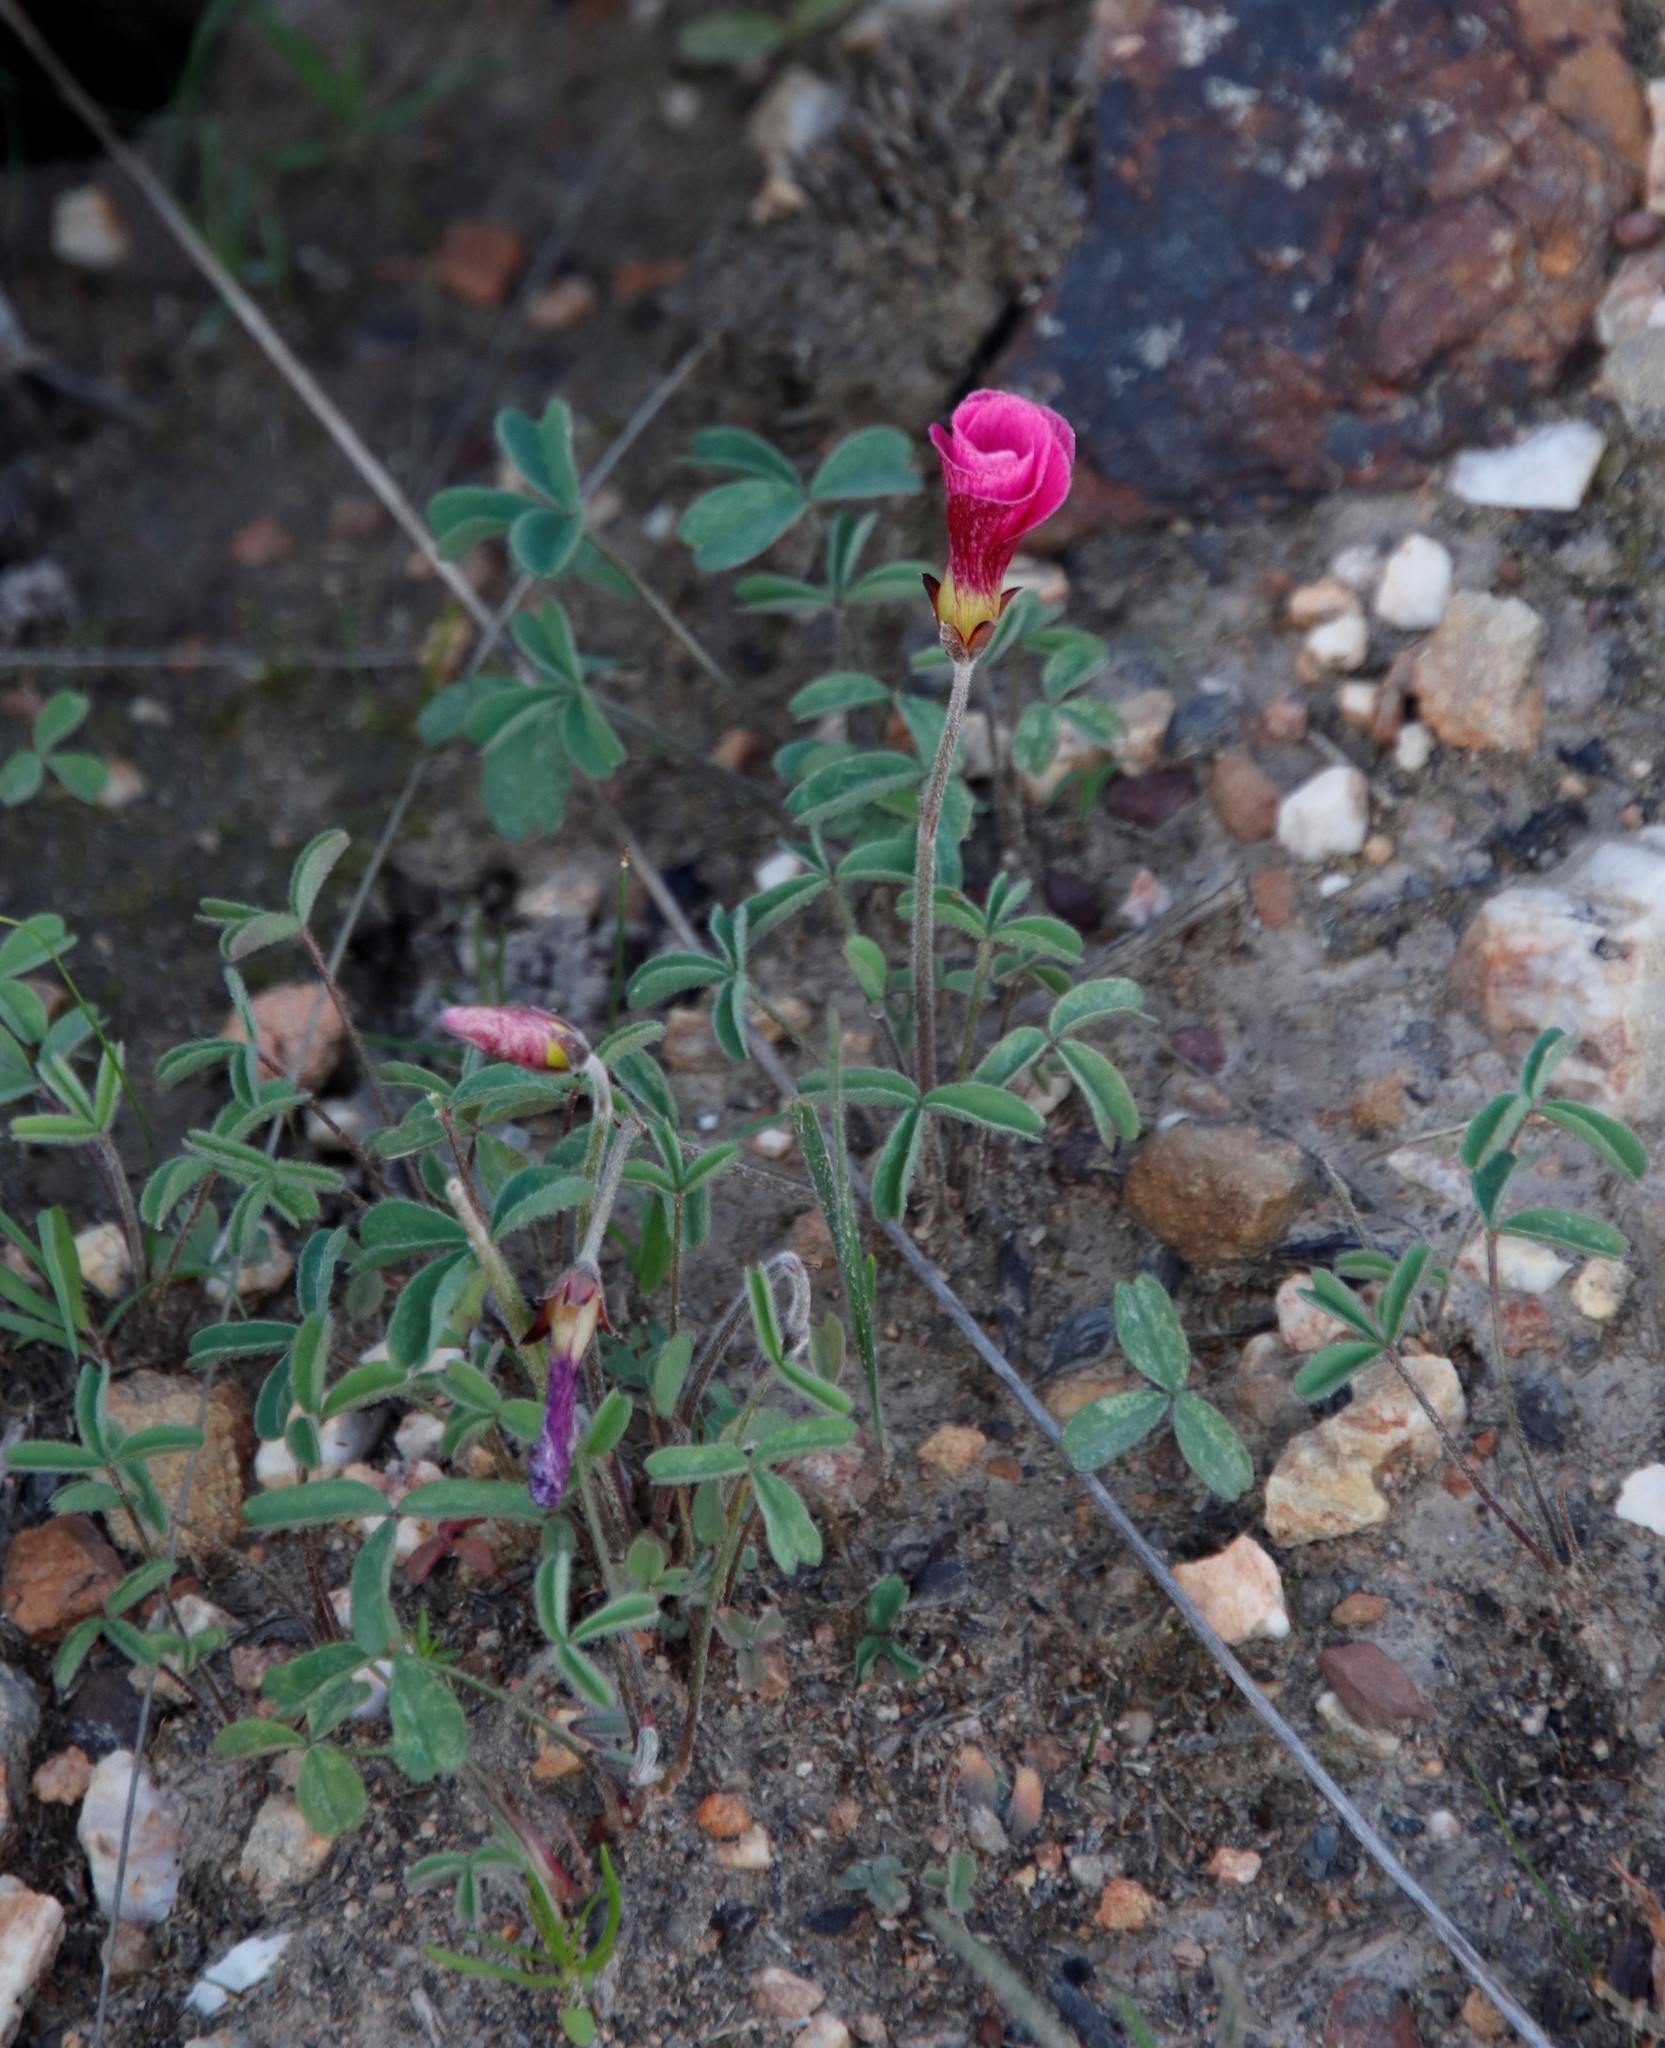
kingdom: Plantae
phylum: Tracheophyta
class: Magnoliopsida
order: Oxalidales
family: Oxalidaceae
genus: Oxalis
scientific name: Oxalis obtusa
